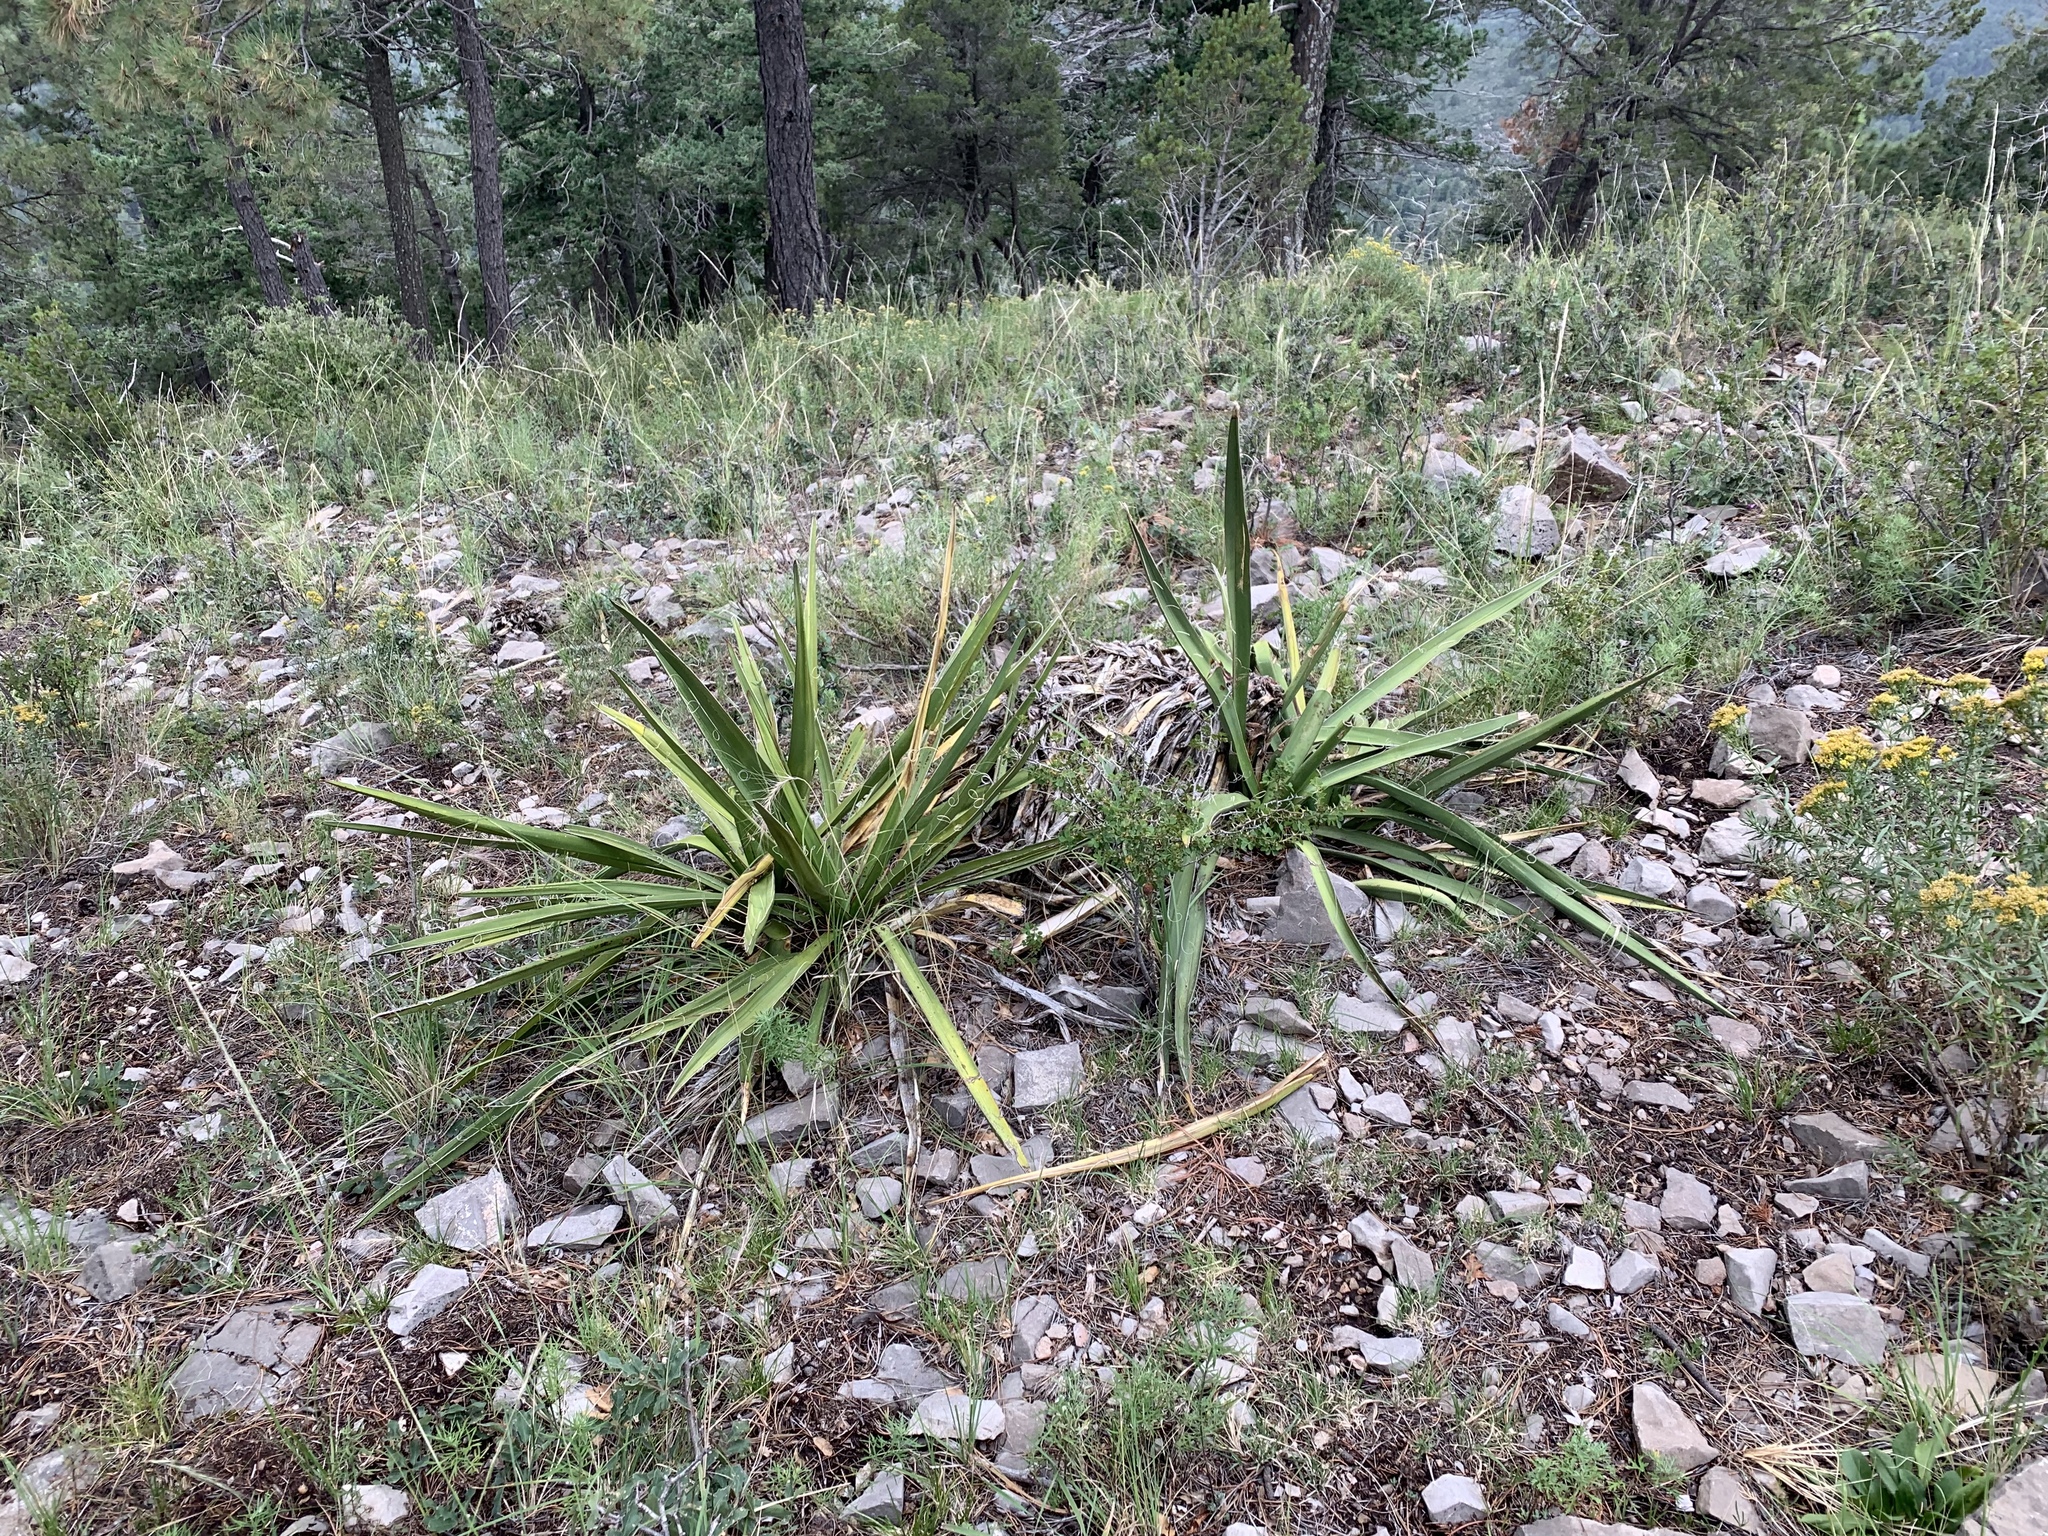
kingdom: Plantae
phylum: Tracheophyta
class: Liliopsida
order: Asparagales
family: Asparagaceae
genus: Yucca
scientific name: Yucca baccata
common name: Banana yucca
